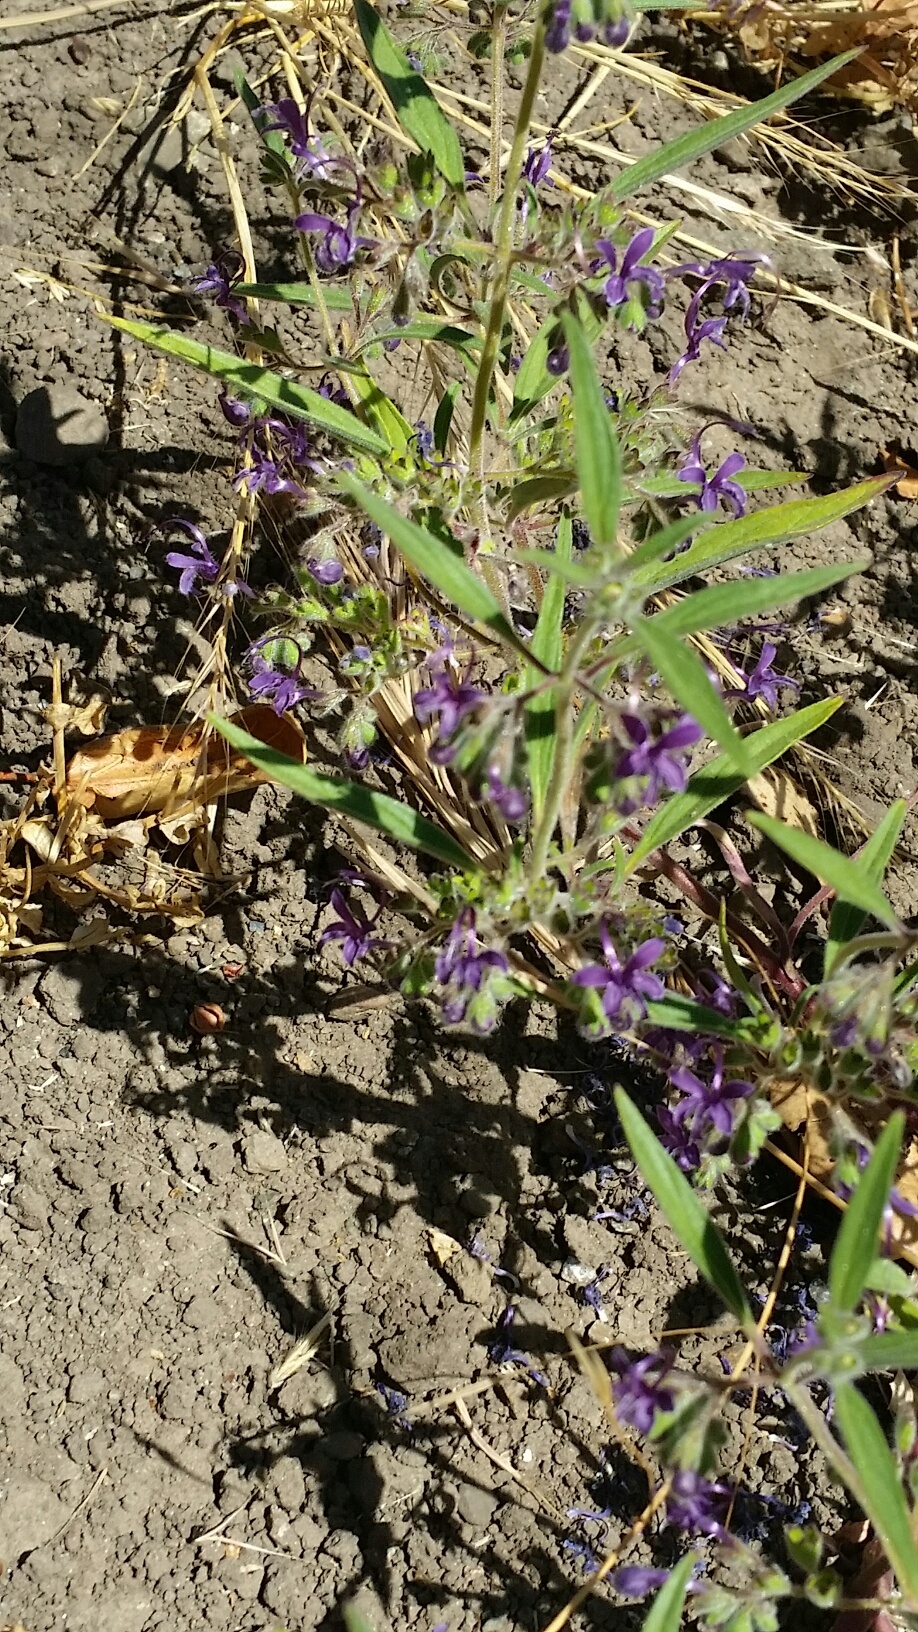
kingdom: Plantae
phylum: Tracheophyta
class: Magnoliopsida
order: Lamiales
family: Lamiaceae
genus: Trichostema
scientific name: Trichostema laxum
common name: Turpentine weed
